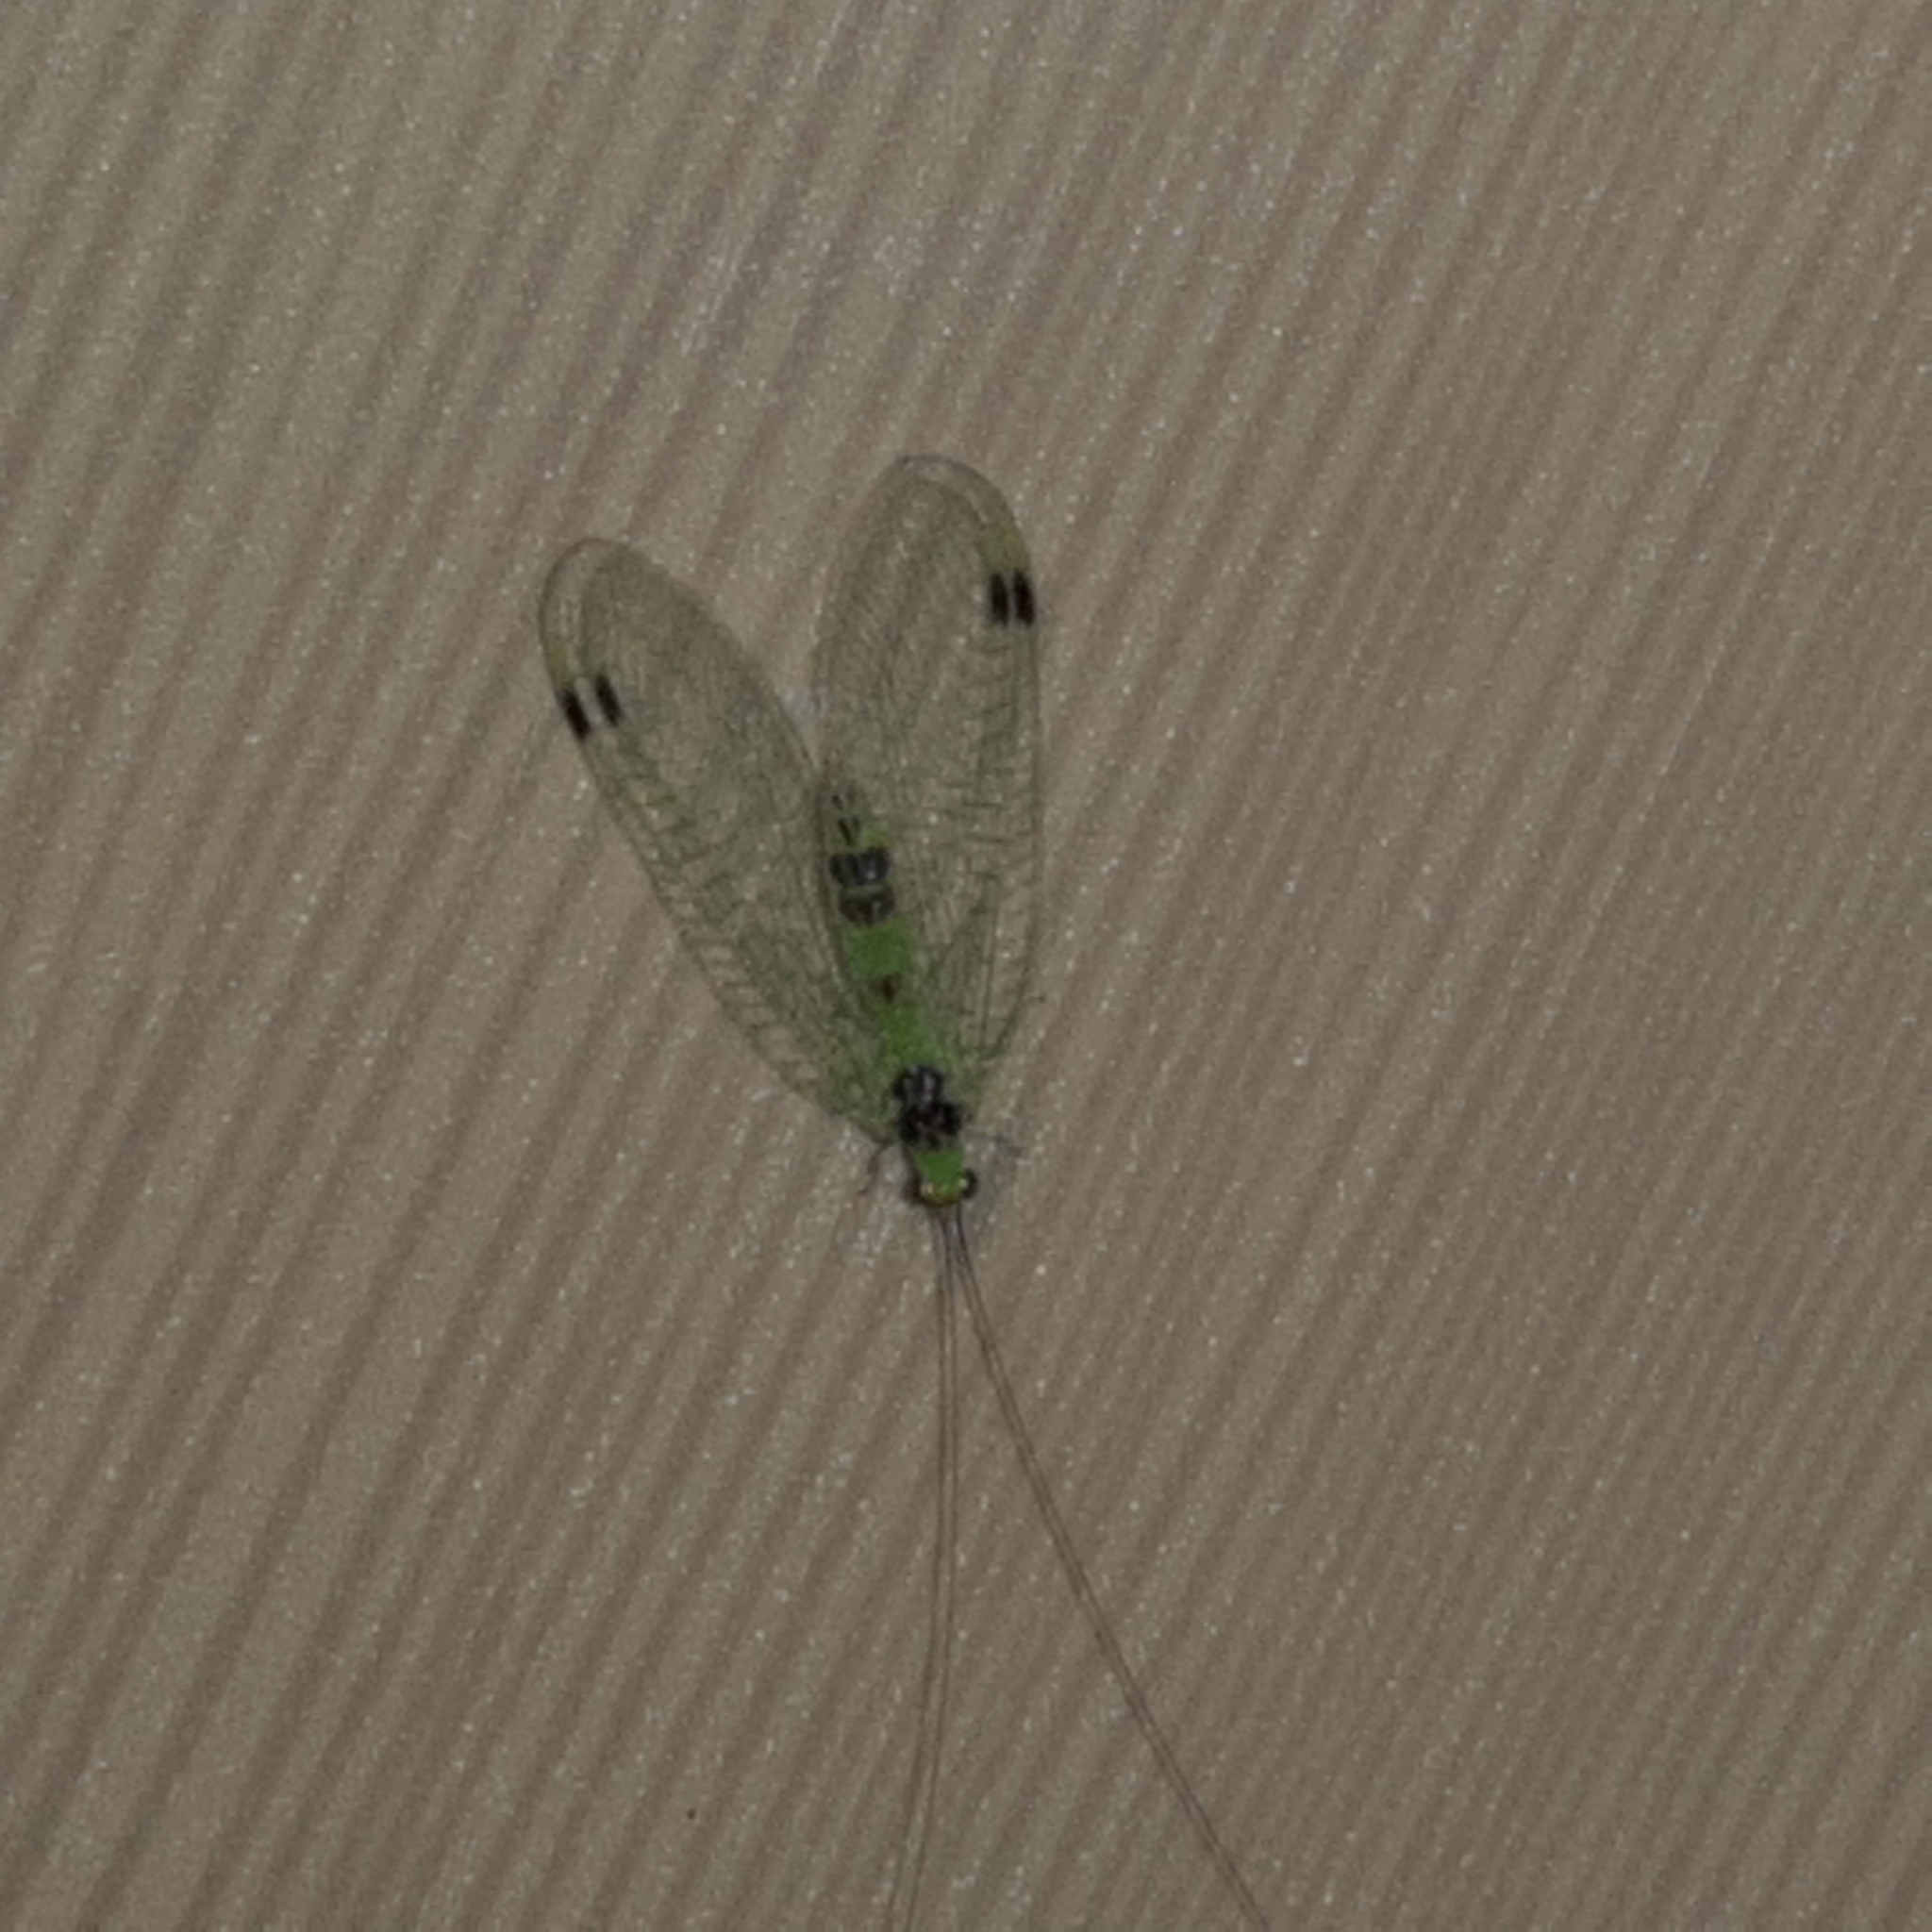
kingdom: Animalia
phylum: Arthropoda
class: Insecta
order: Neuroptera
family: Chrysopidae
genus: Gonzaga
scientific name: Gonzaga torquatus
